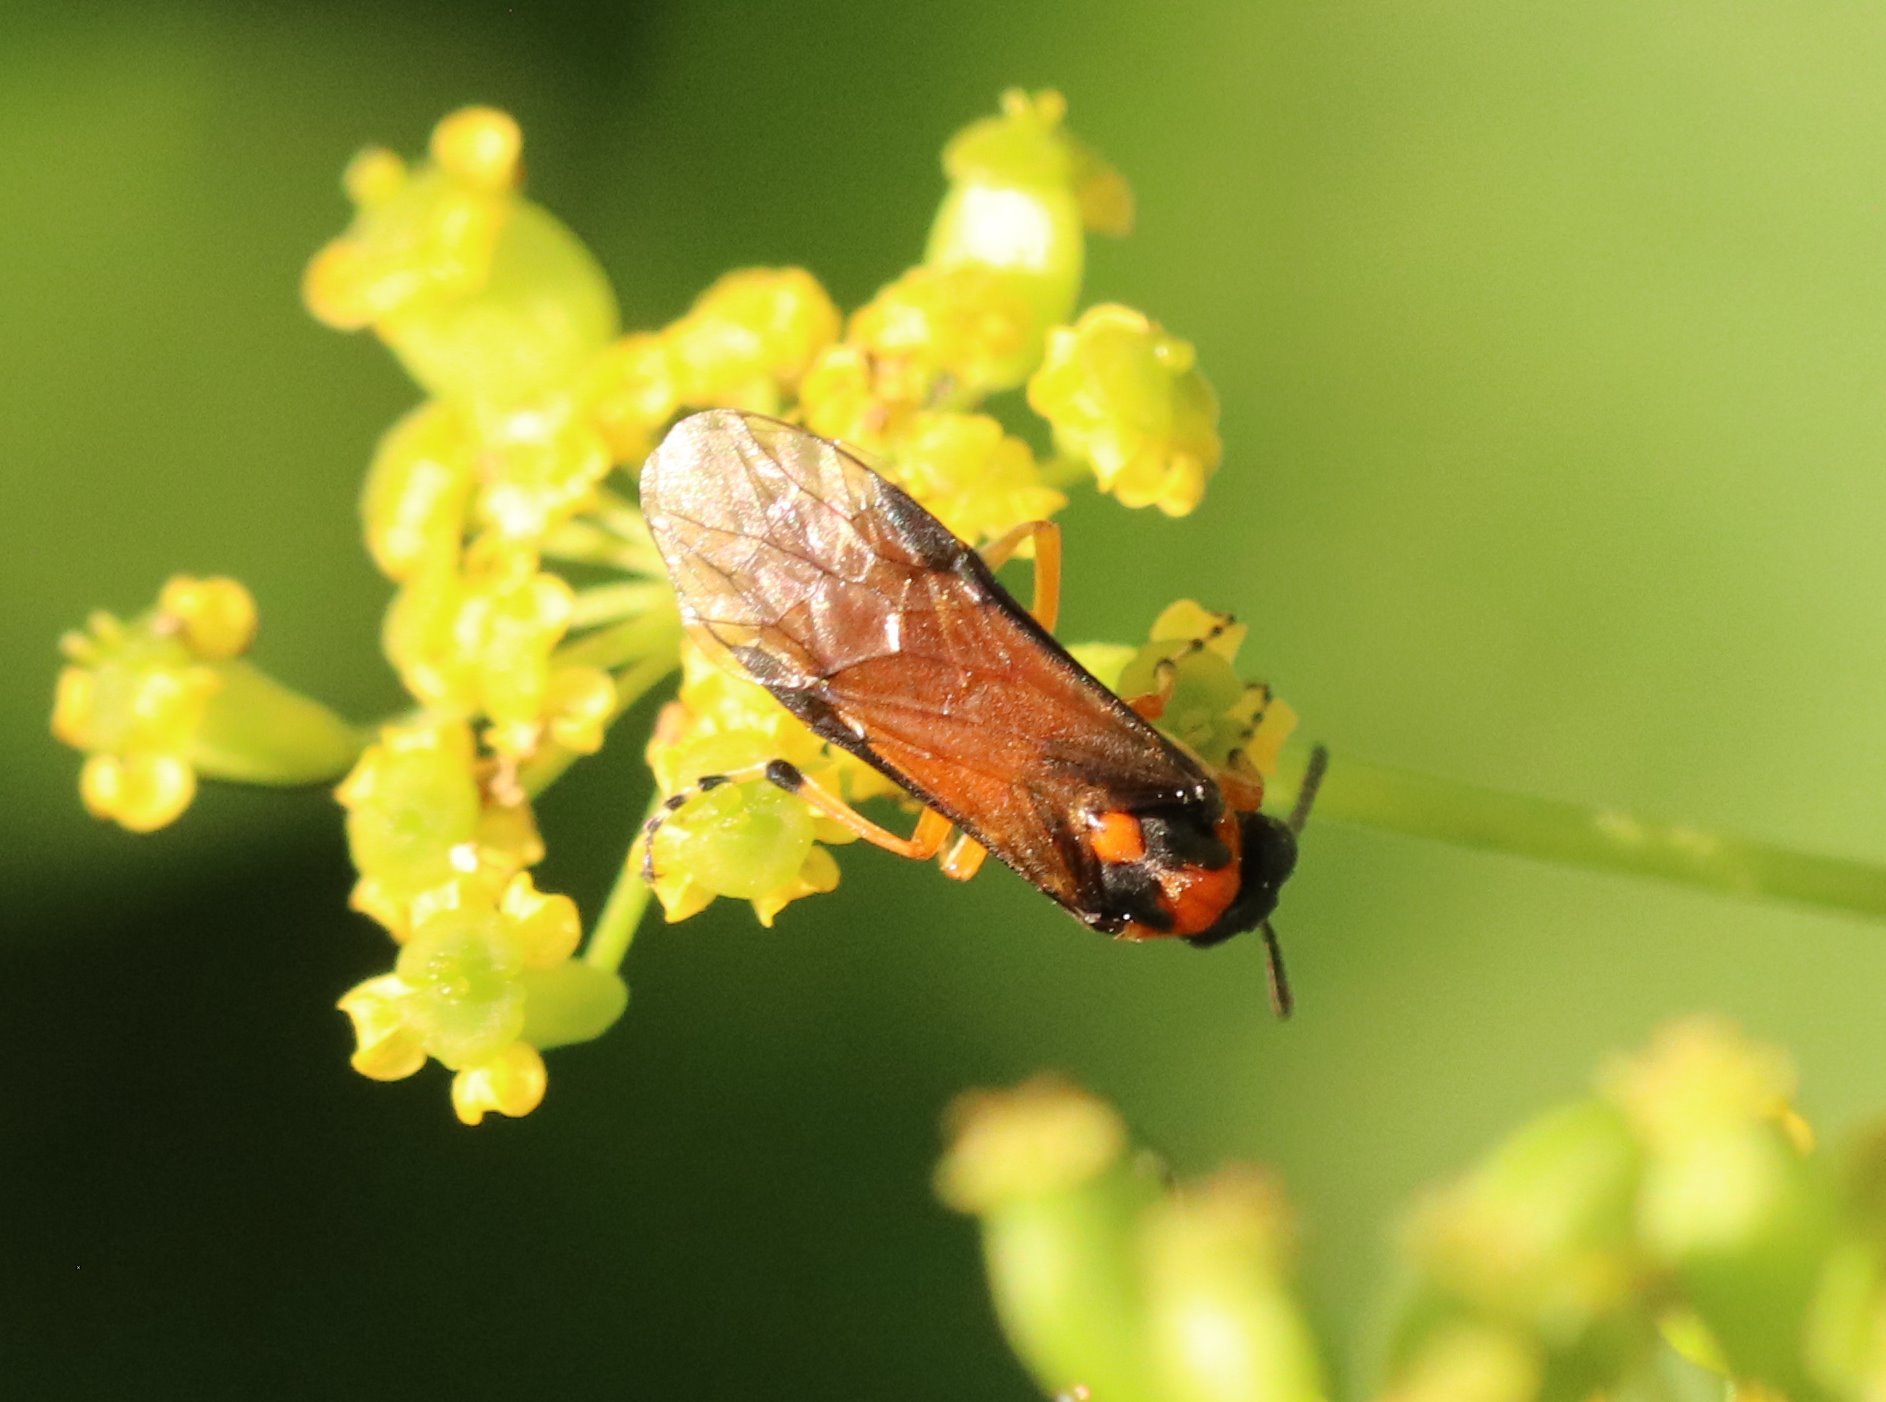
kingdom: Animalia
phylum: Arthropoda
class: Insecta
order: Hymenoptera
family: Tenthredinidae
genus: Athalia
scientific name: Athalia rosae
